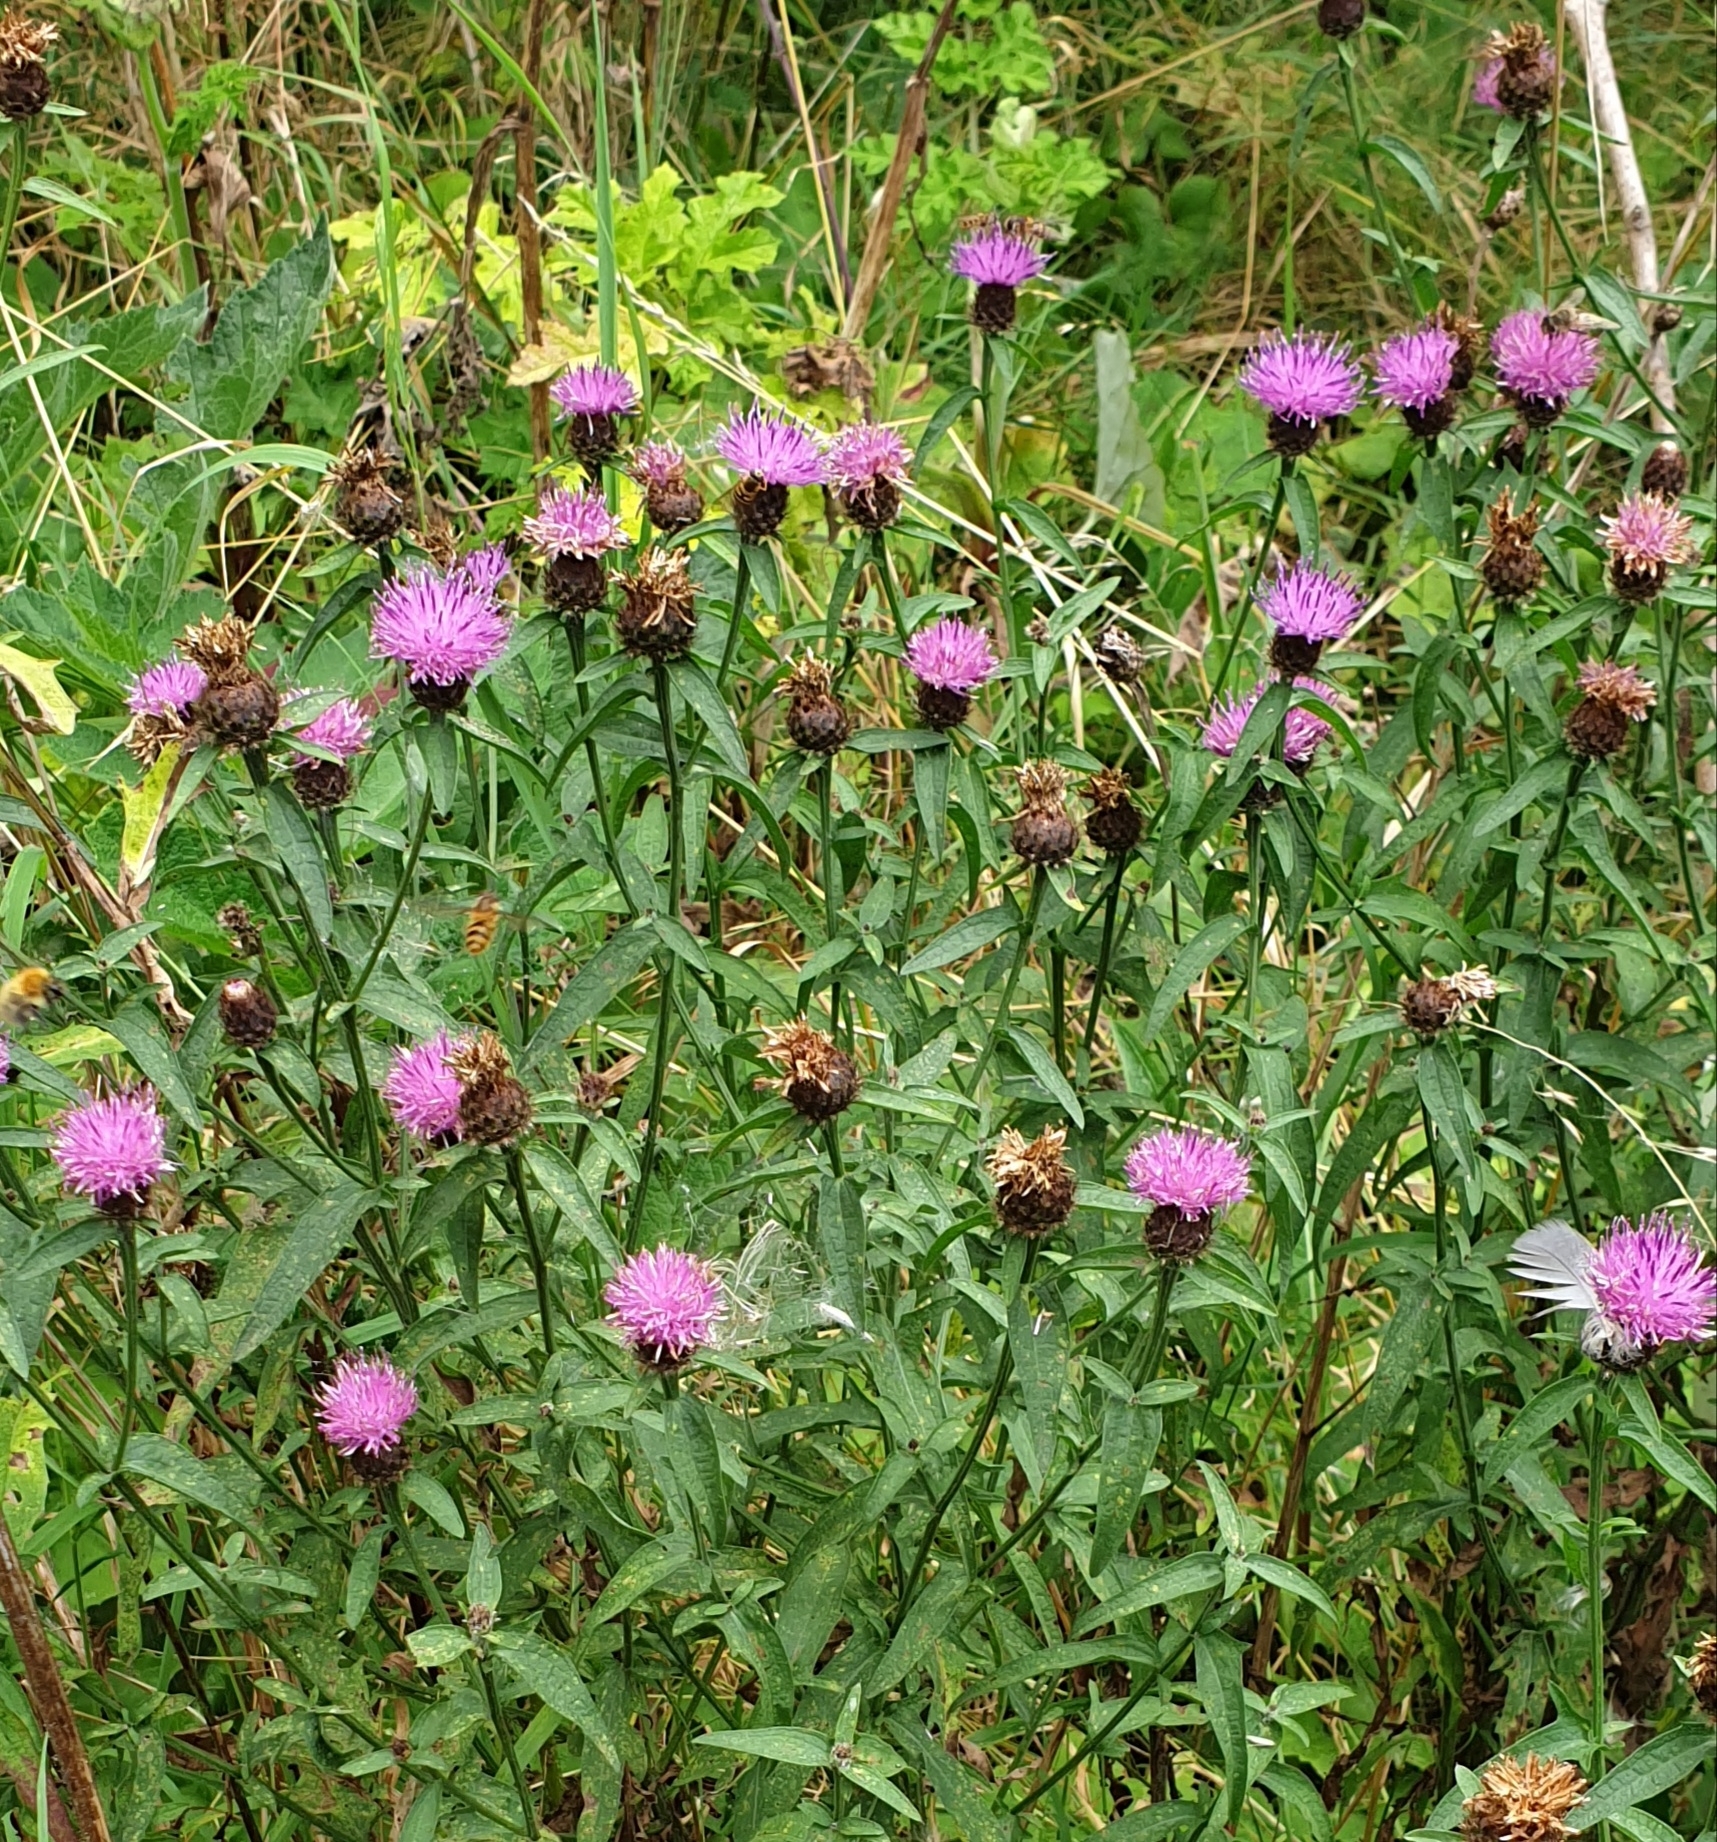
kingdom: Plantae
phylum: Tracheophyta
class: Magnoliopsida
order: Asterales
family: Asteraceae
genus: Centaurea
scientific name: Centaurea nigra
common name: Lesser knapweed
